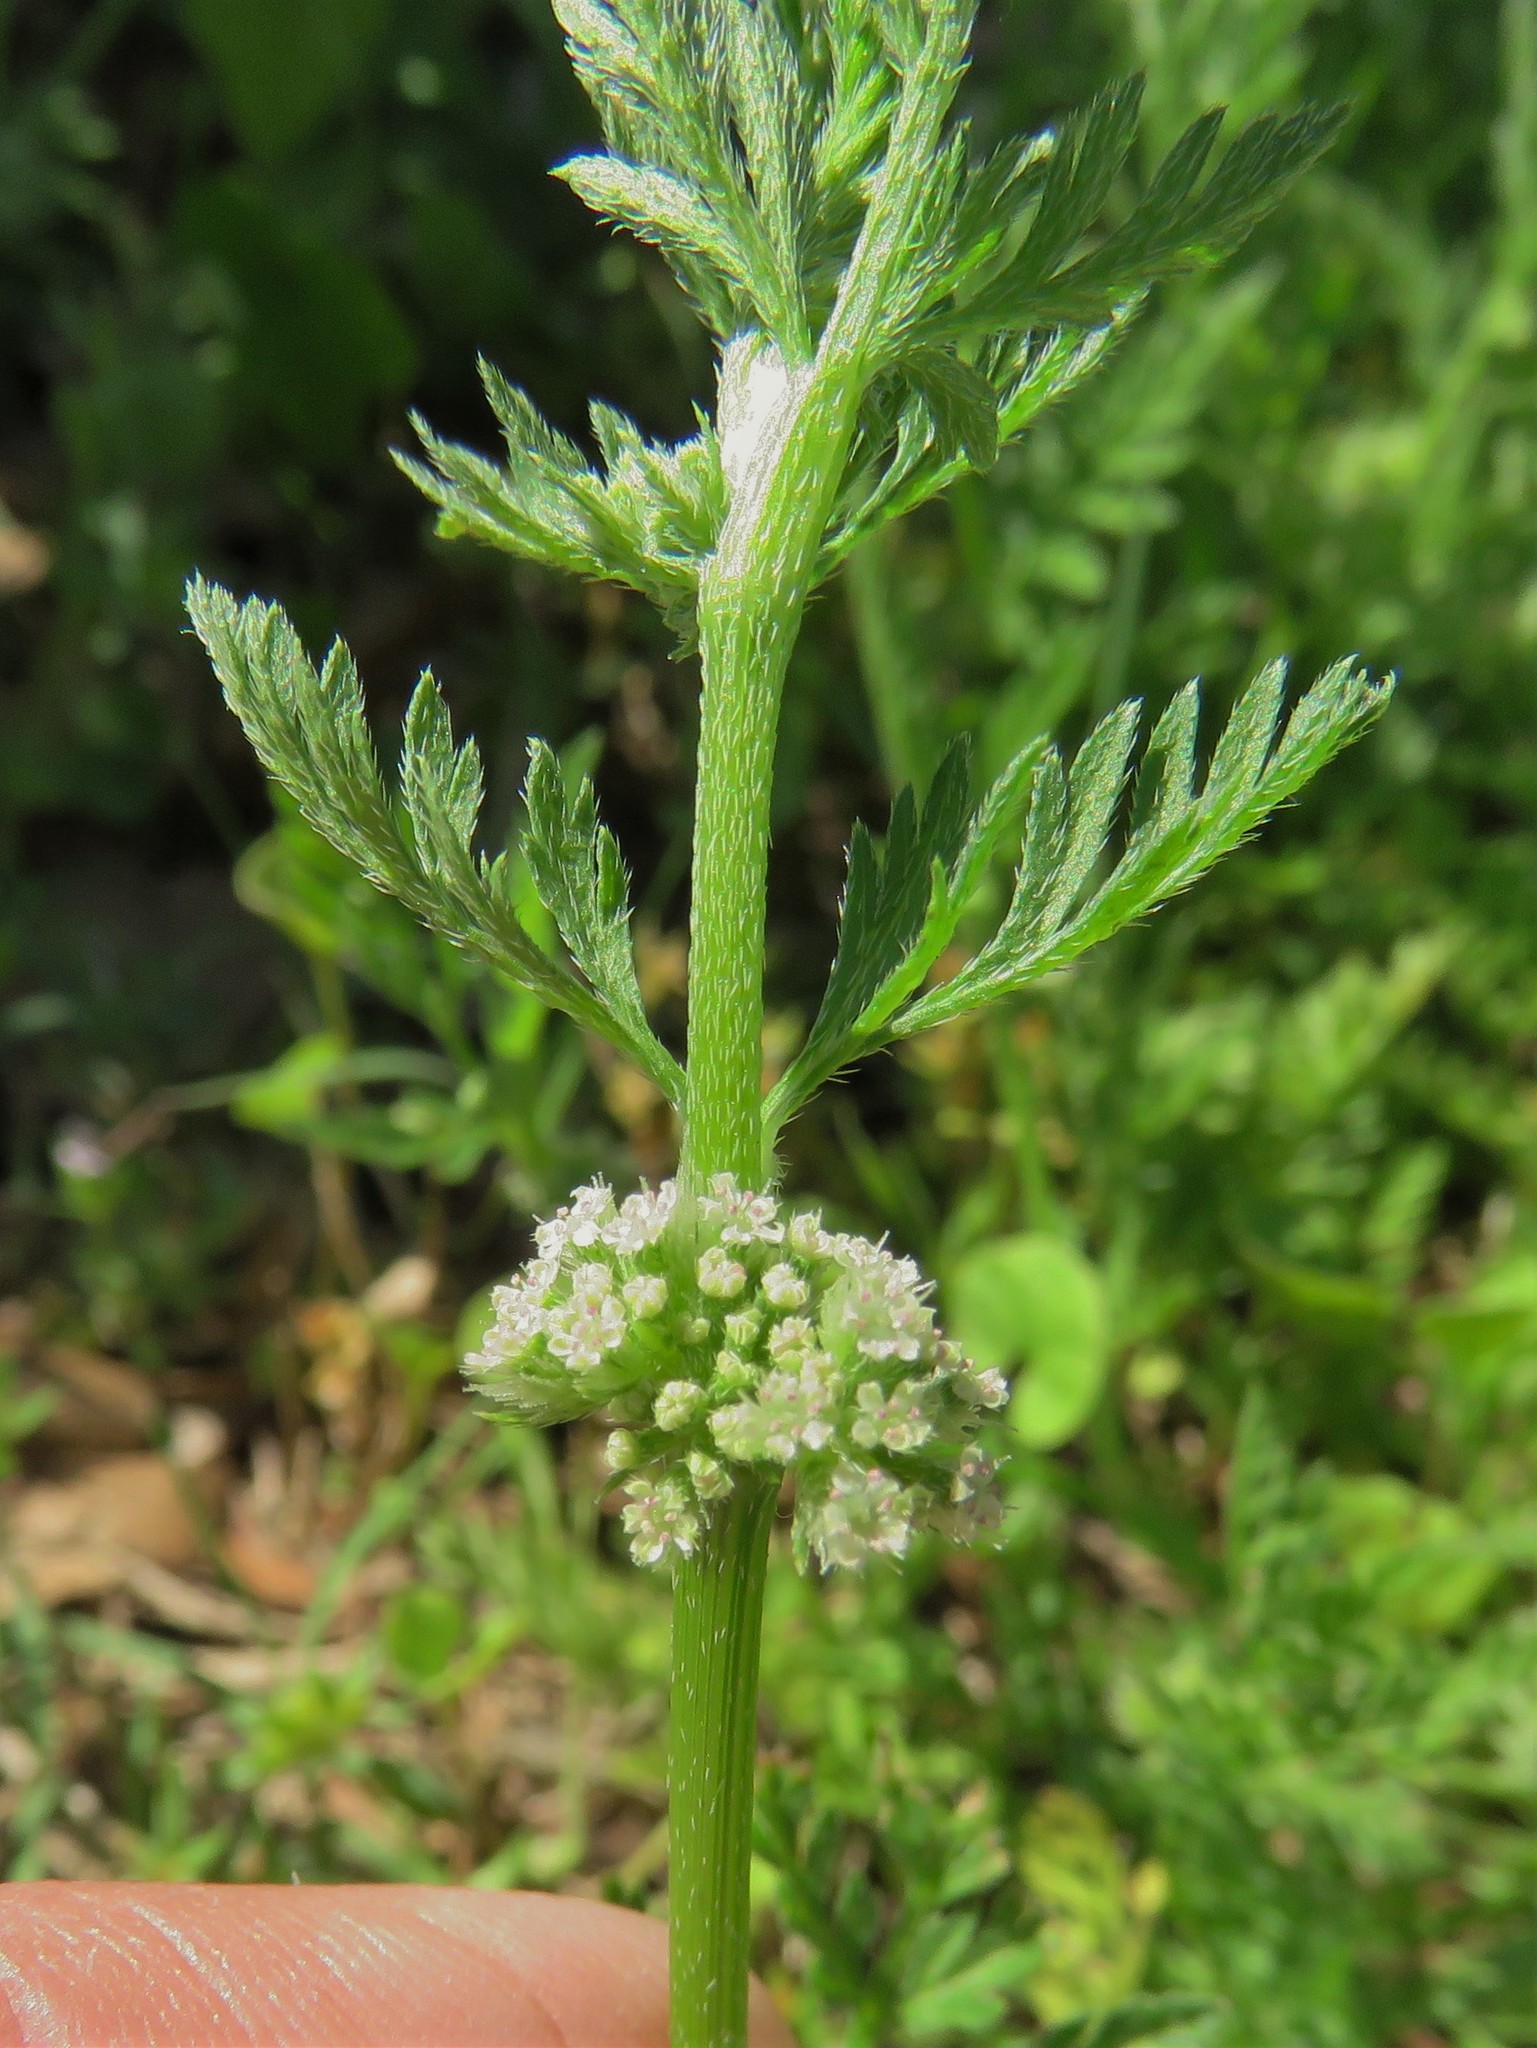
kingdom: Plantae
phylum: Tracheophyta
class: Magnoliopsida
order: Apiales
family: Apiaceae
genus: Torilis
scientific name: Torilis nodosa
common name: Knotted hedge-parsley
